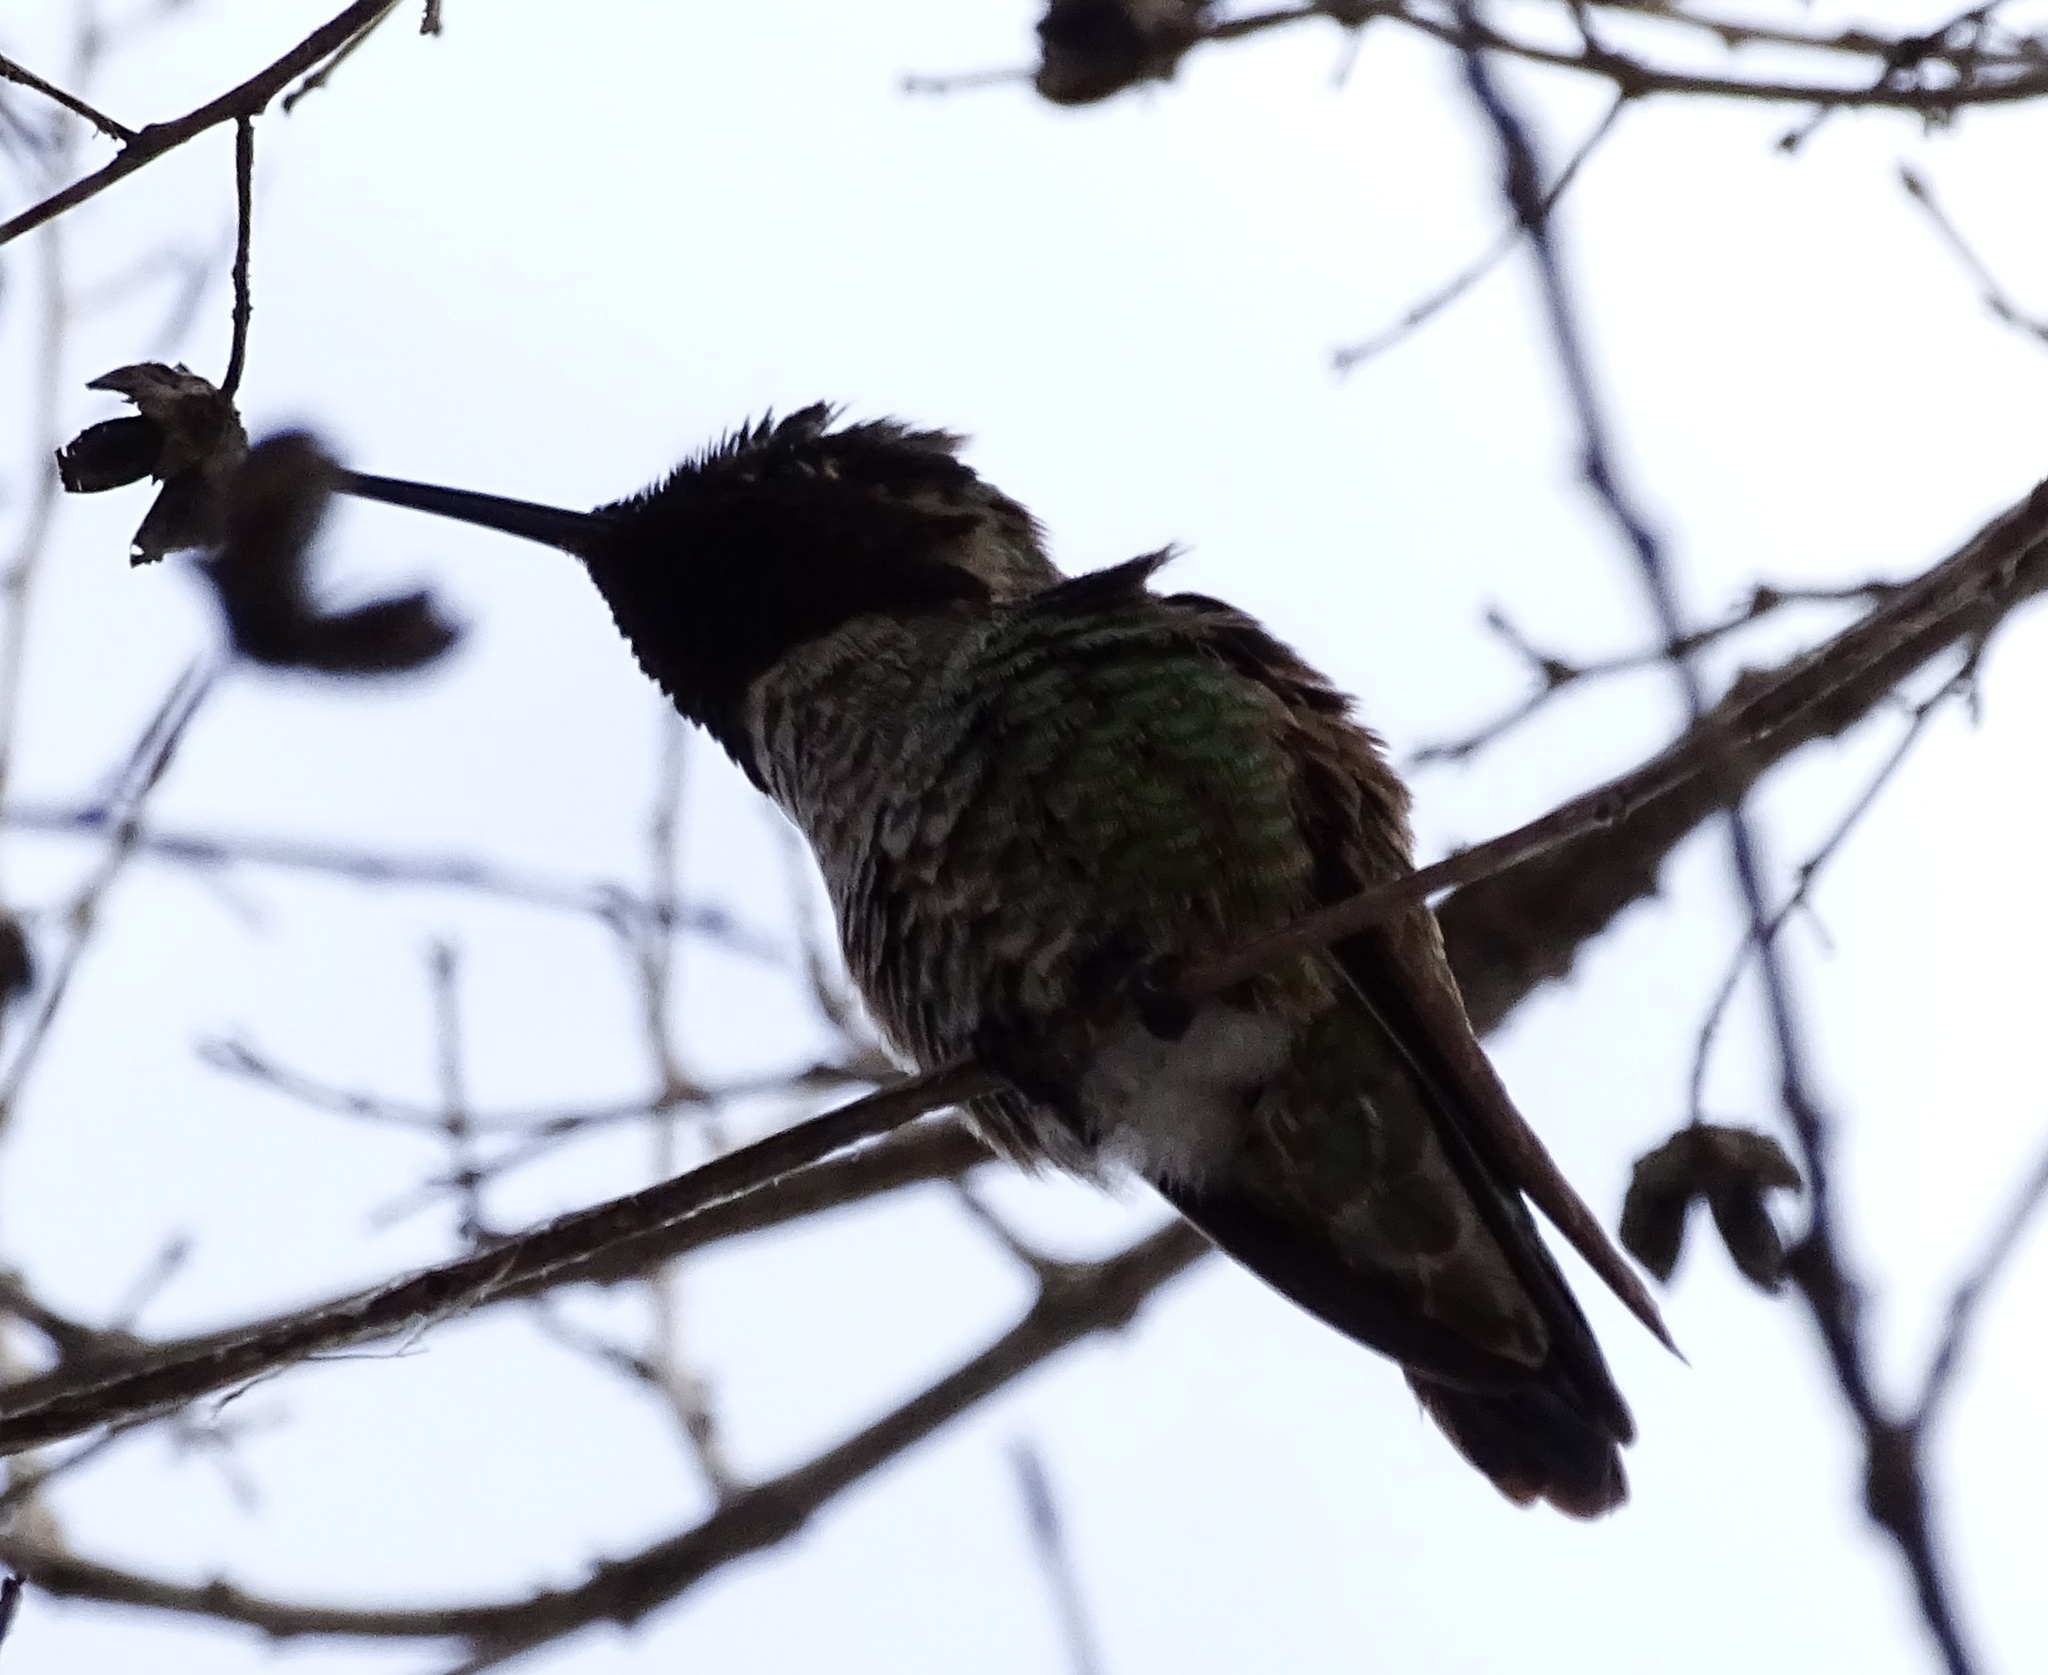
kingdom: Animalia
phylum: Chordata
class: Aves
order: Apodiformes
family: Trochilidae
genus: Calypte
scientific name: Calypte anna
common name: Anna's hummingbird
